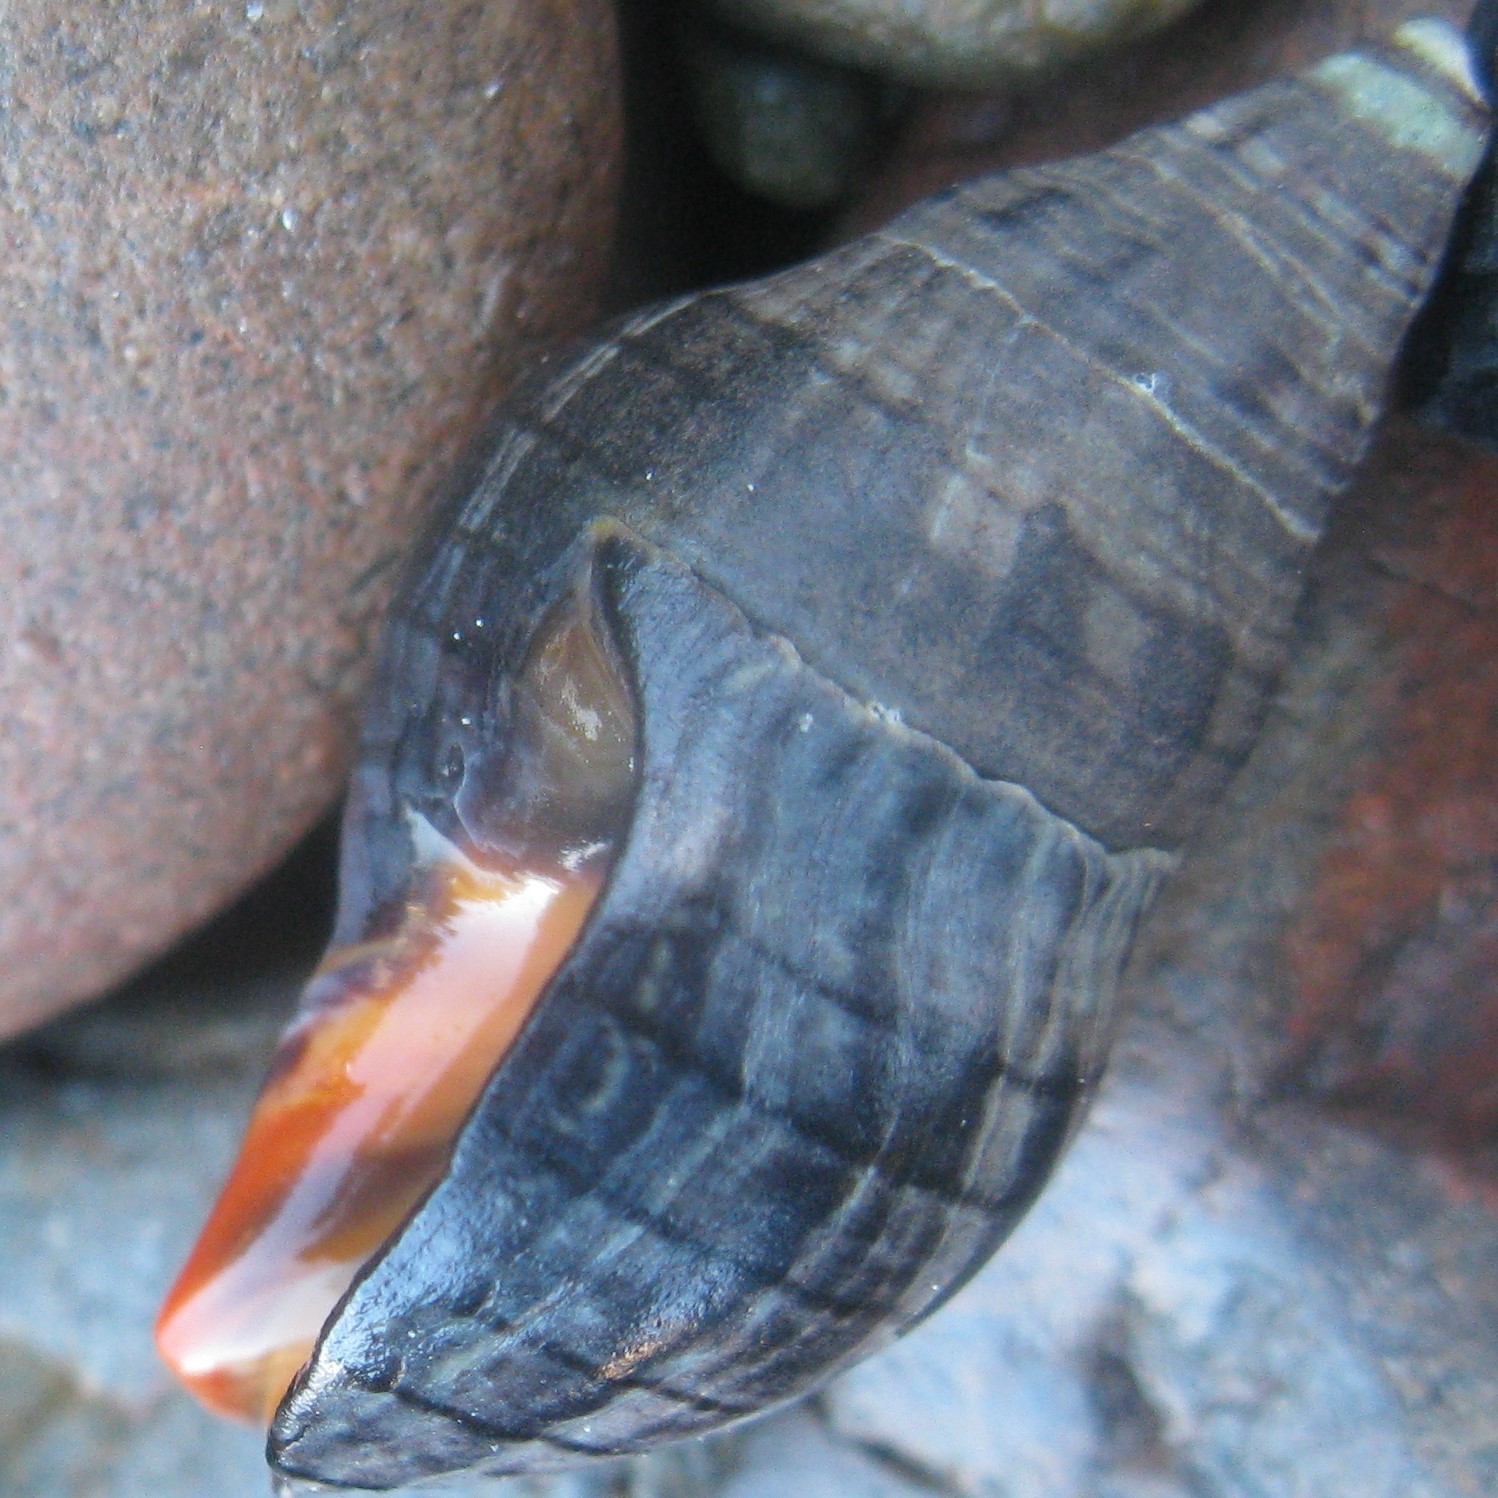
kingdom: Animalia
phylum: Mollusca
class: Gastropoda
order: Neogastropoda
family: Cominellidae
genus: Cominella
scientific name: Cominella virgata
